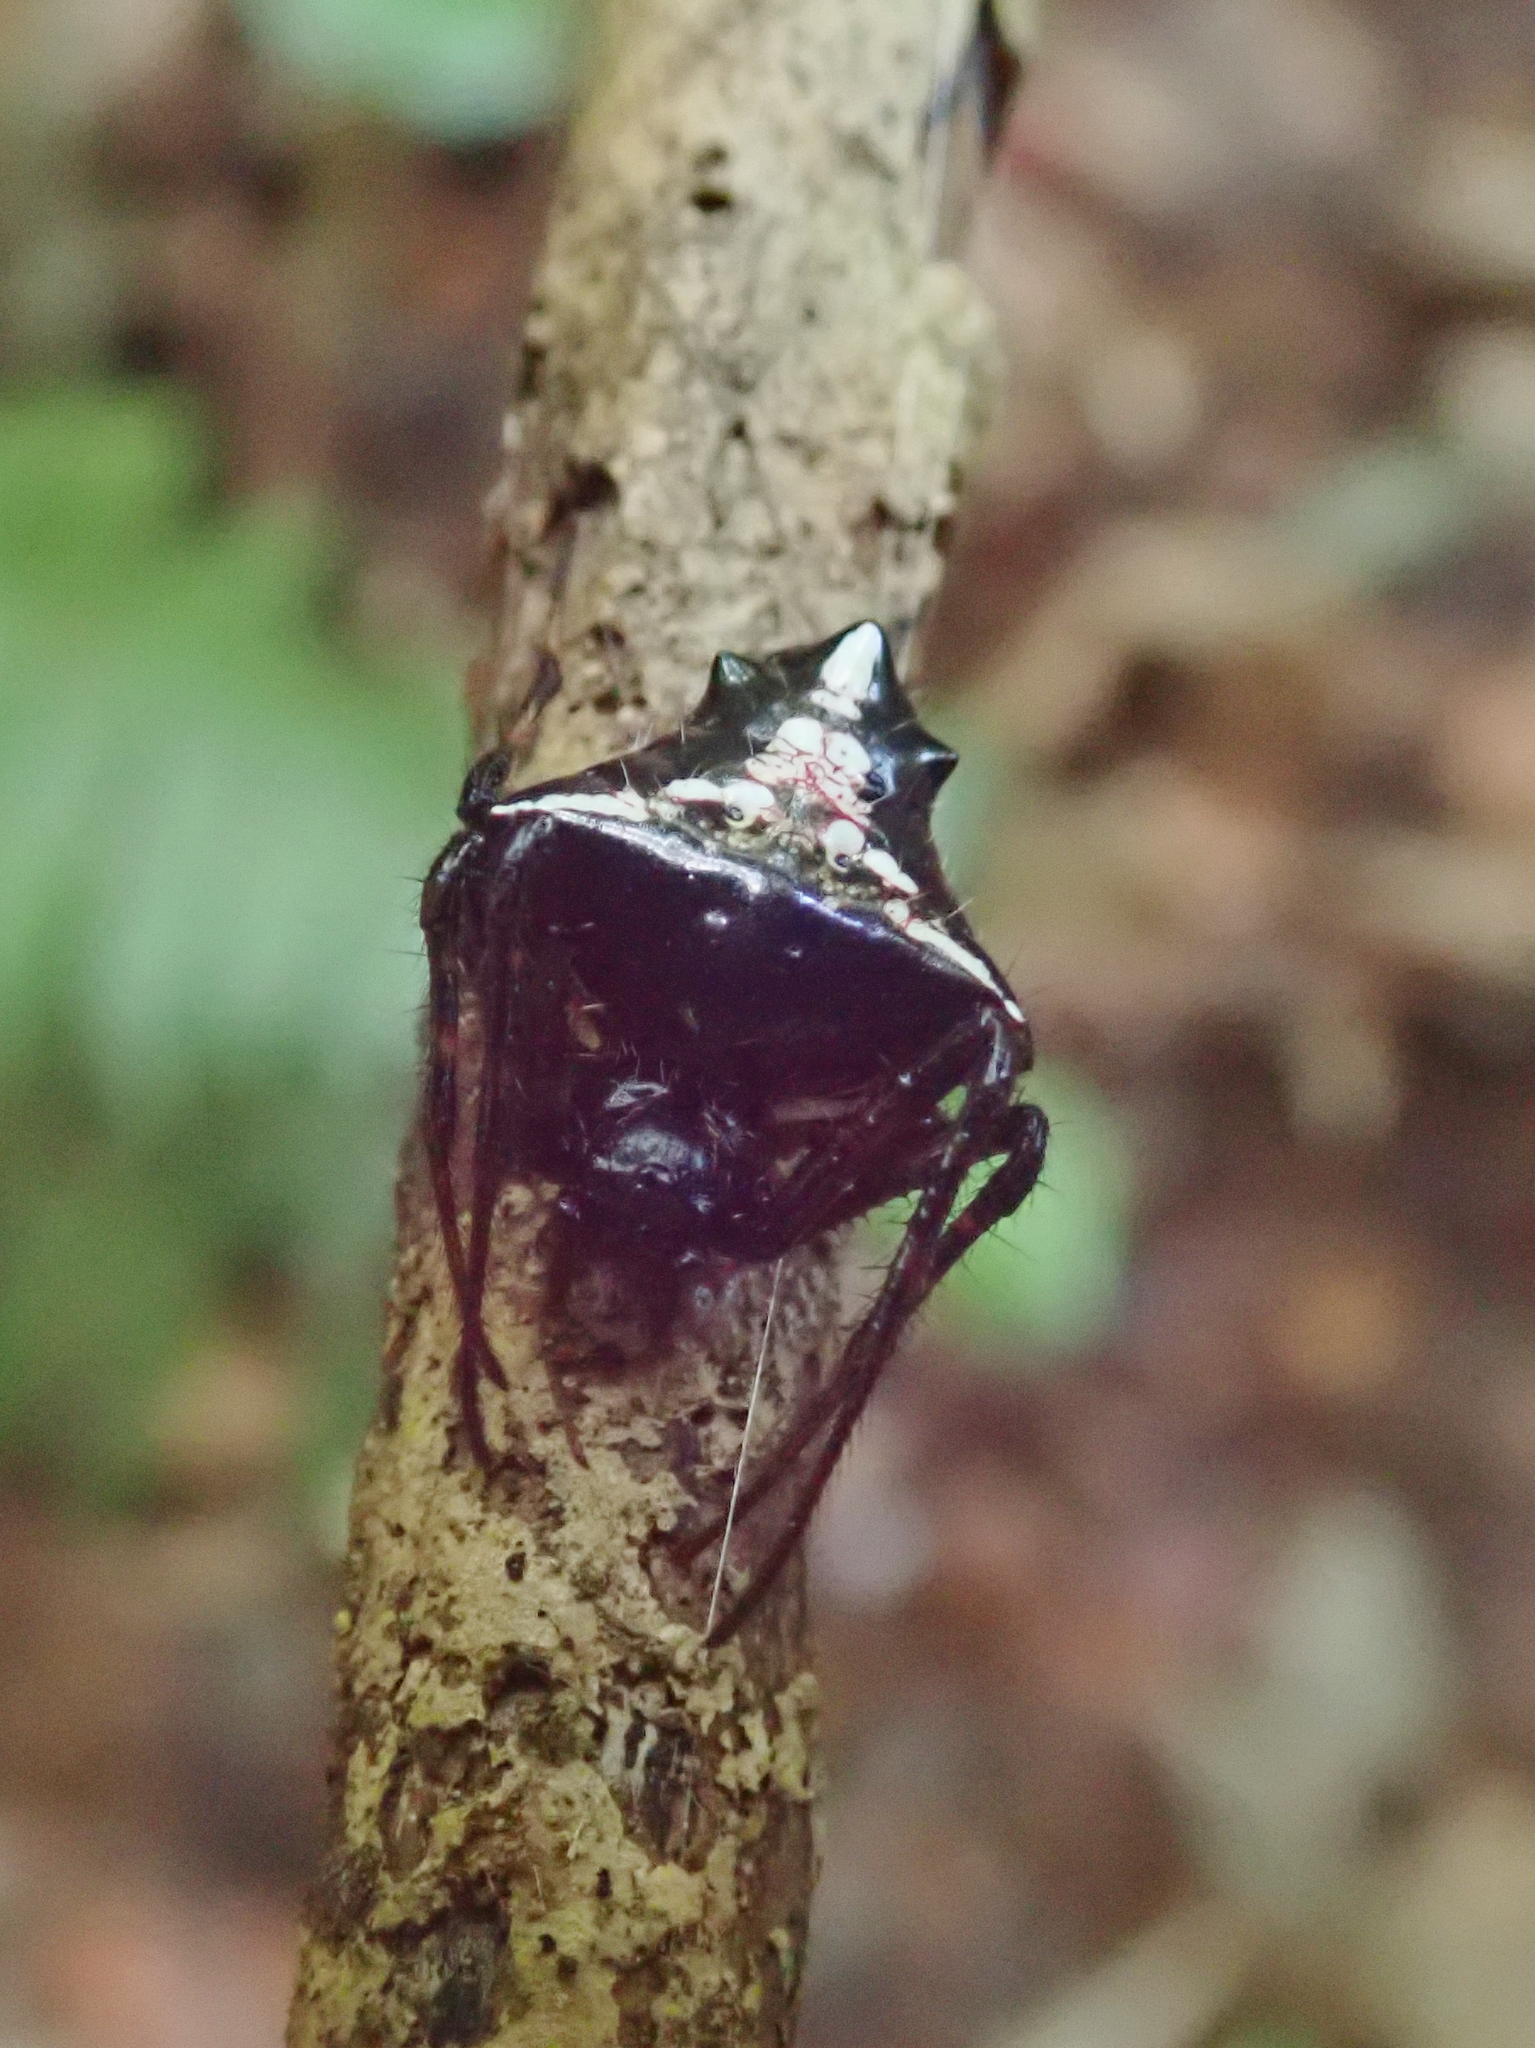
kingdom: Animalia
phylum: Arthropoda
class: Arachnida
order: Araneae
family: Araneidae
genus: Verrucosa
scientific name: Verrucosa scapofracta
